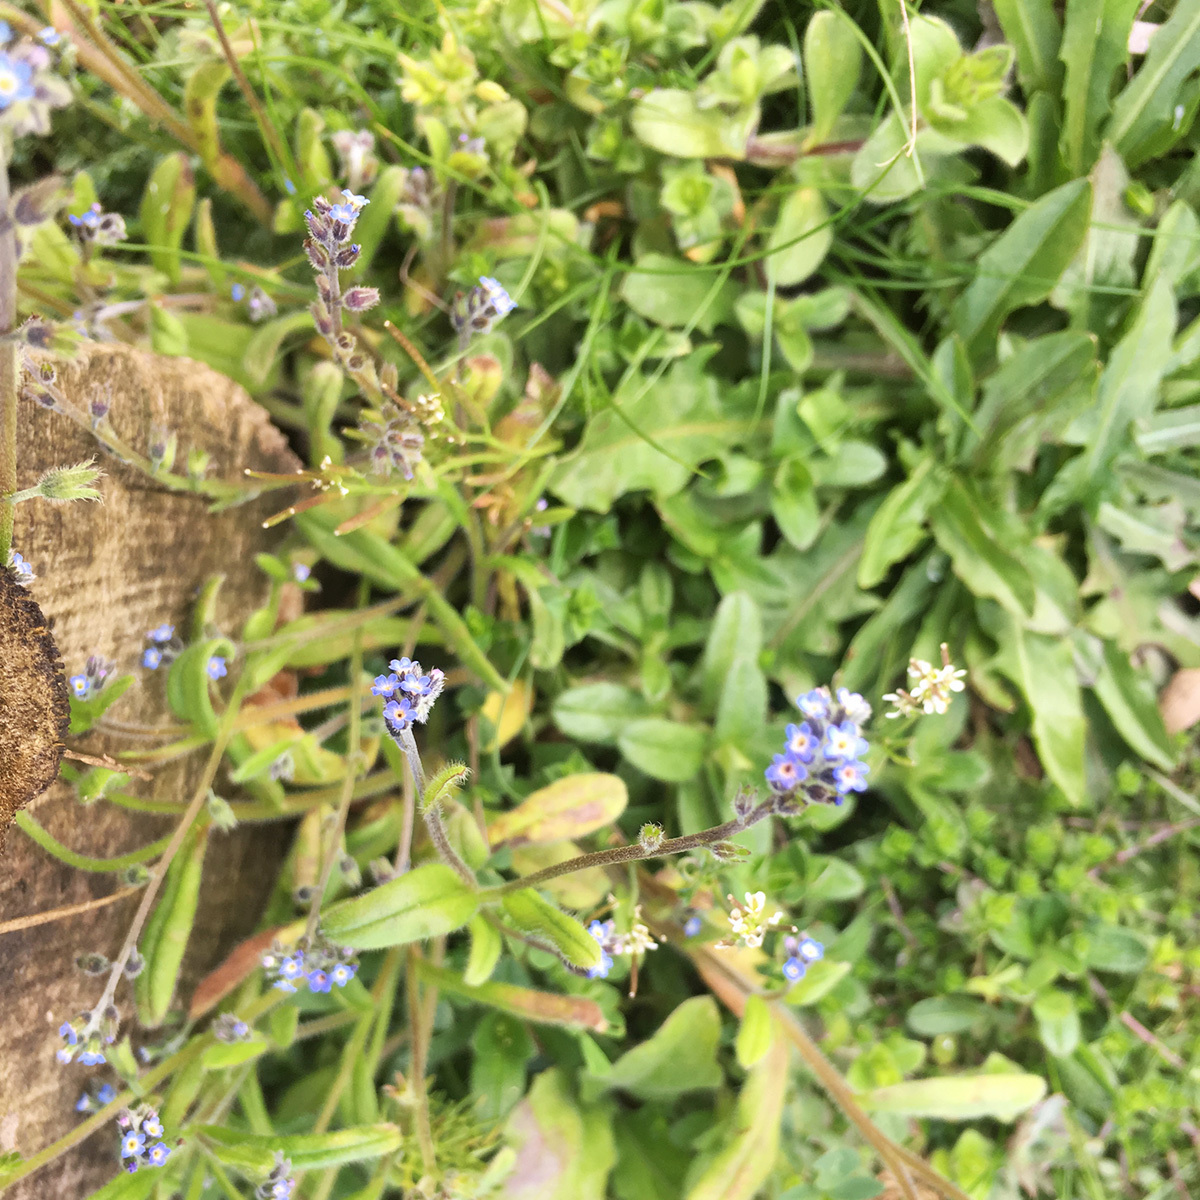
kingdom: Plantae
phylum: Tracheophyta
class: Magnoliopsida
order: Boraginales
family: Boraginaceae
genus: Myosotis
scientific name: Myosotis stricta
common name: Strict forget-me-not
